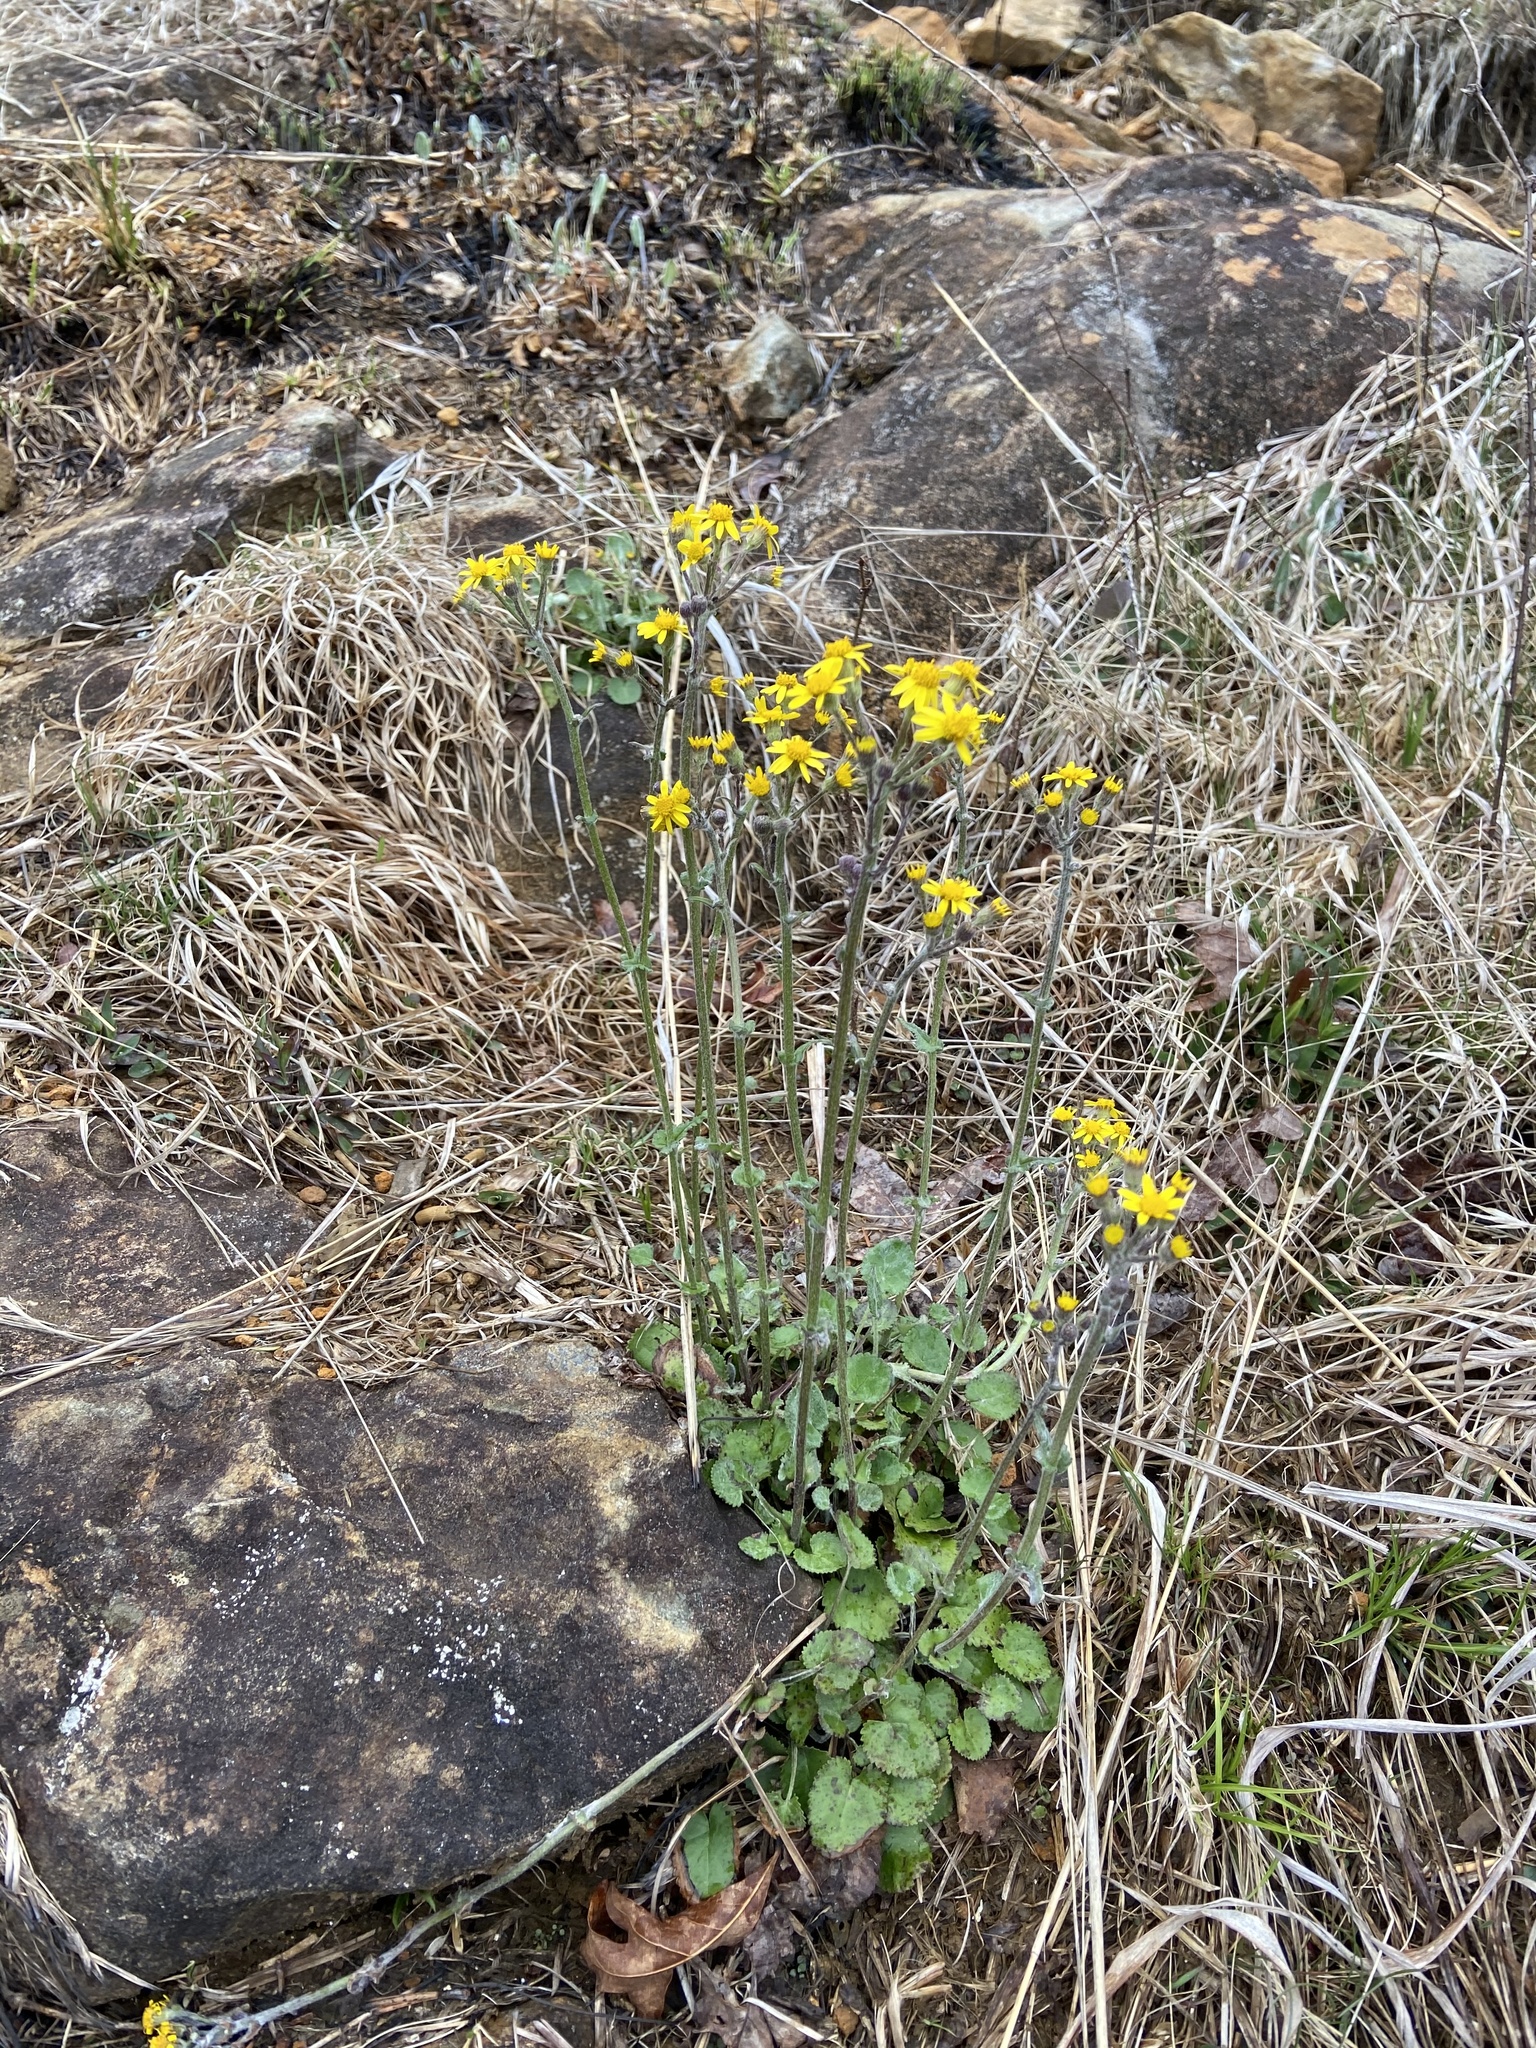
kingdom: Plantae
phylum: Tracheophyta
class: Magnoliopsida
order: Asterales
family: Asteraceae
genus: Packera
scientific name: Packera serpenticola
